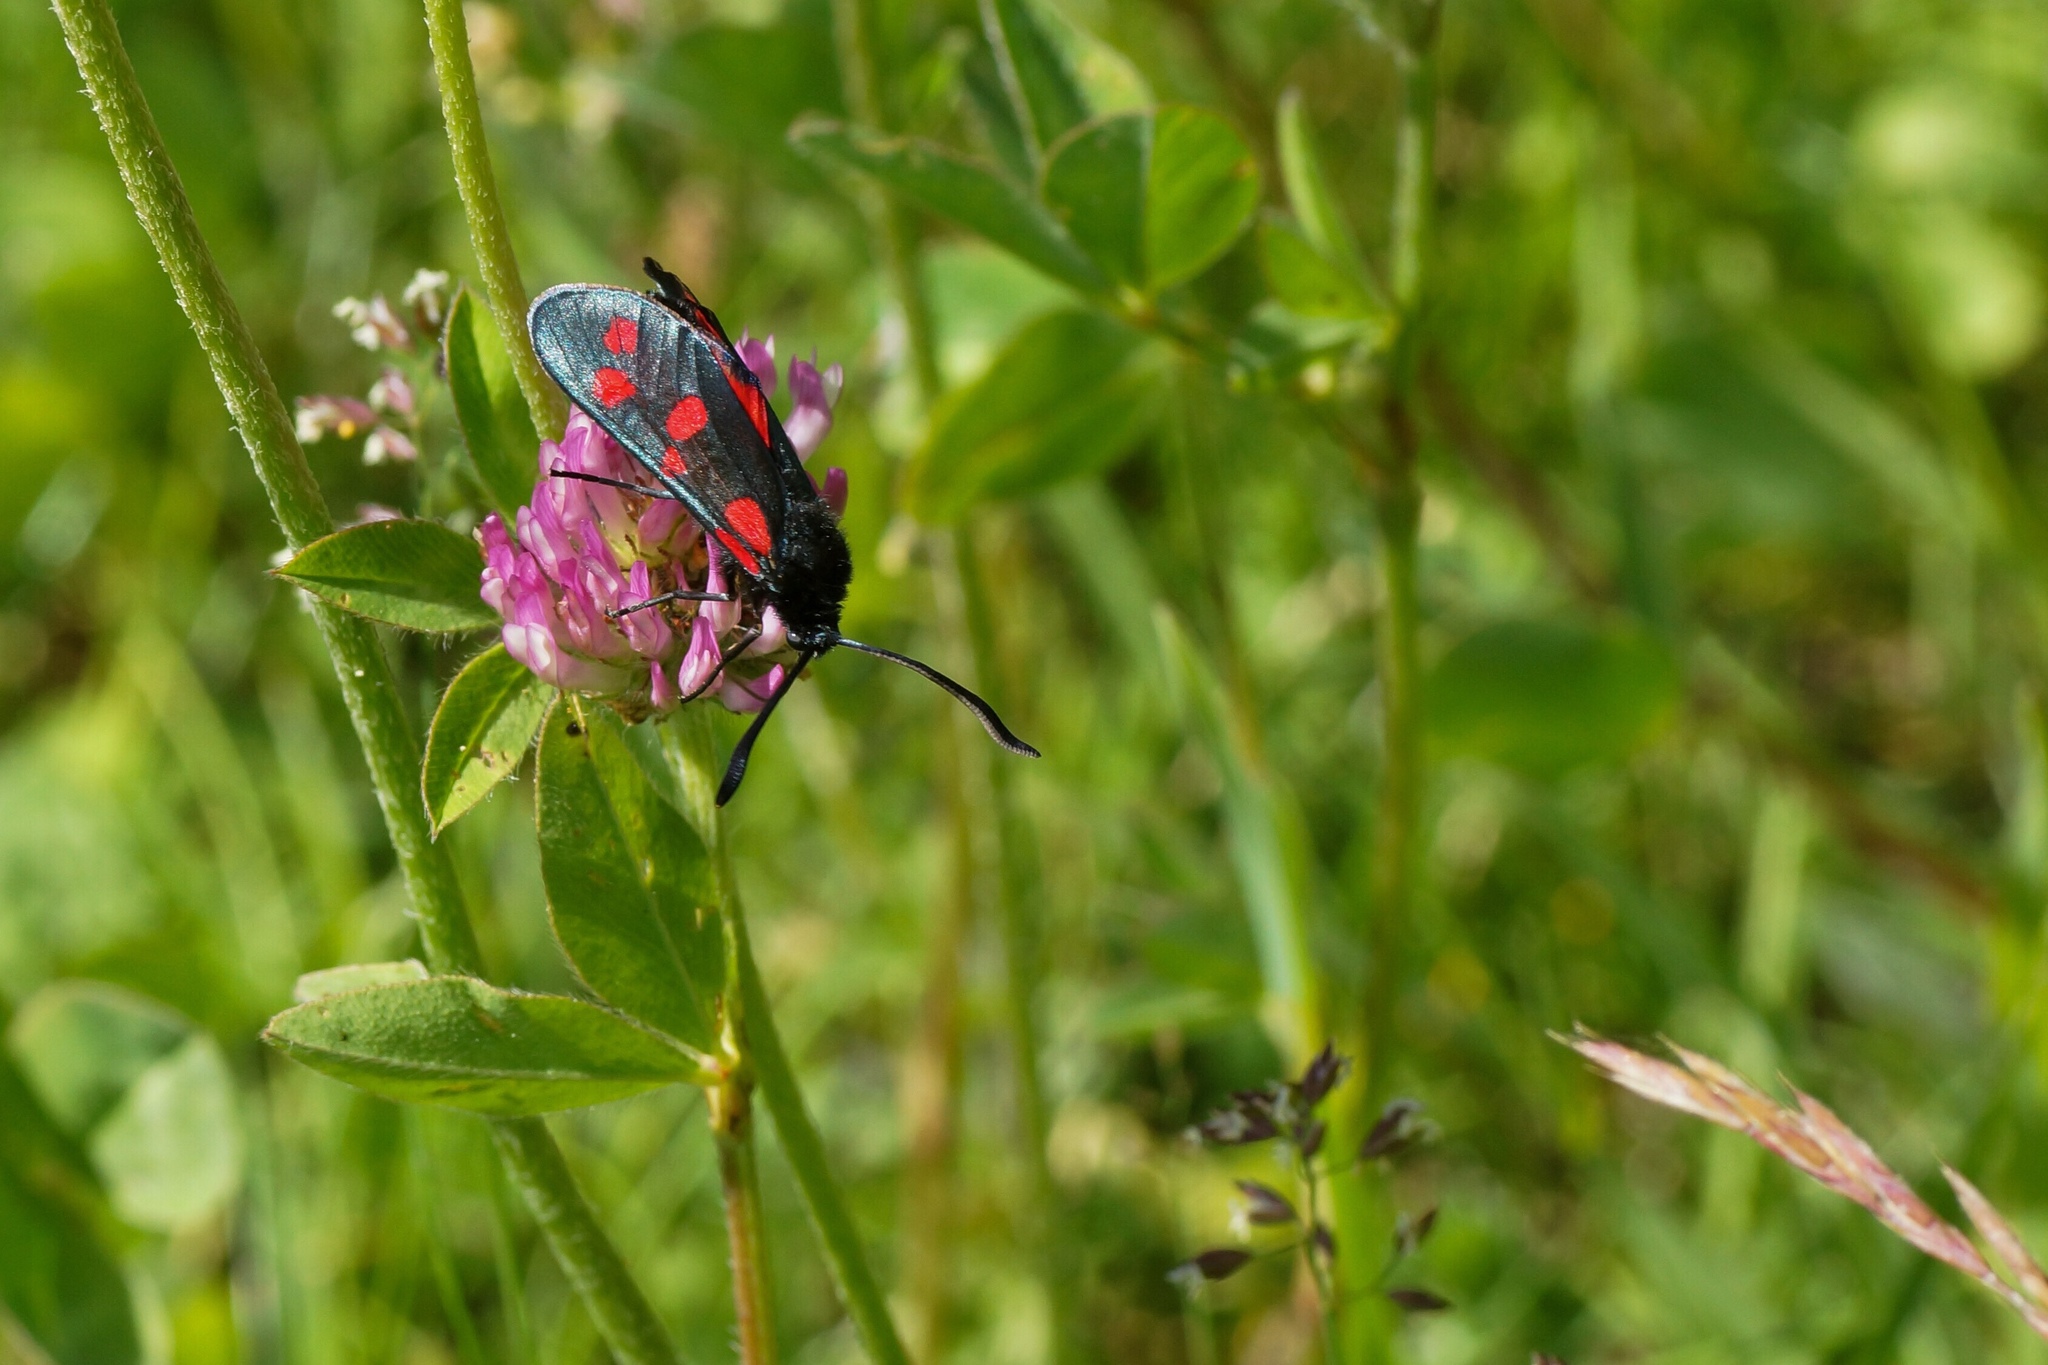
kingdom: Animalia
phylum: Arthropoda
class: Insecta
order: Lepidoptera
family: Zygaenidae
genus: Zygaena
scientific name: Zygaena filipendulae
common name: Six-spot burnet
